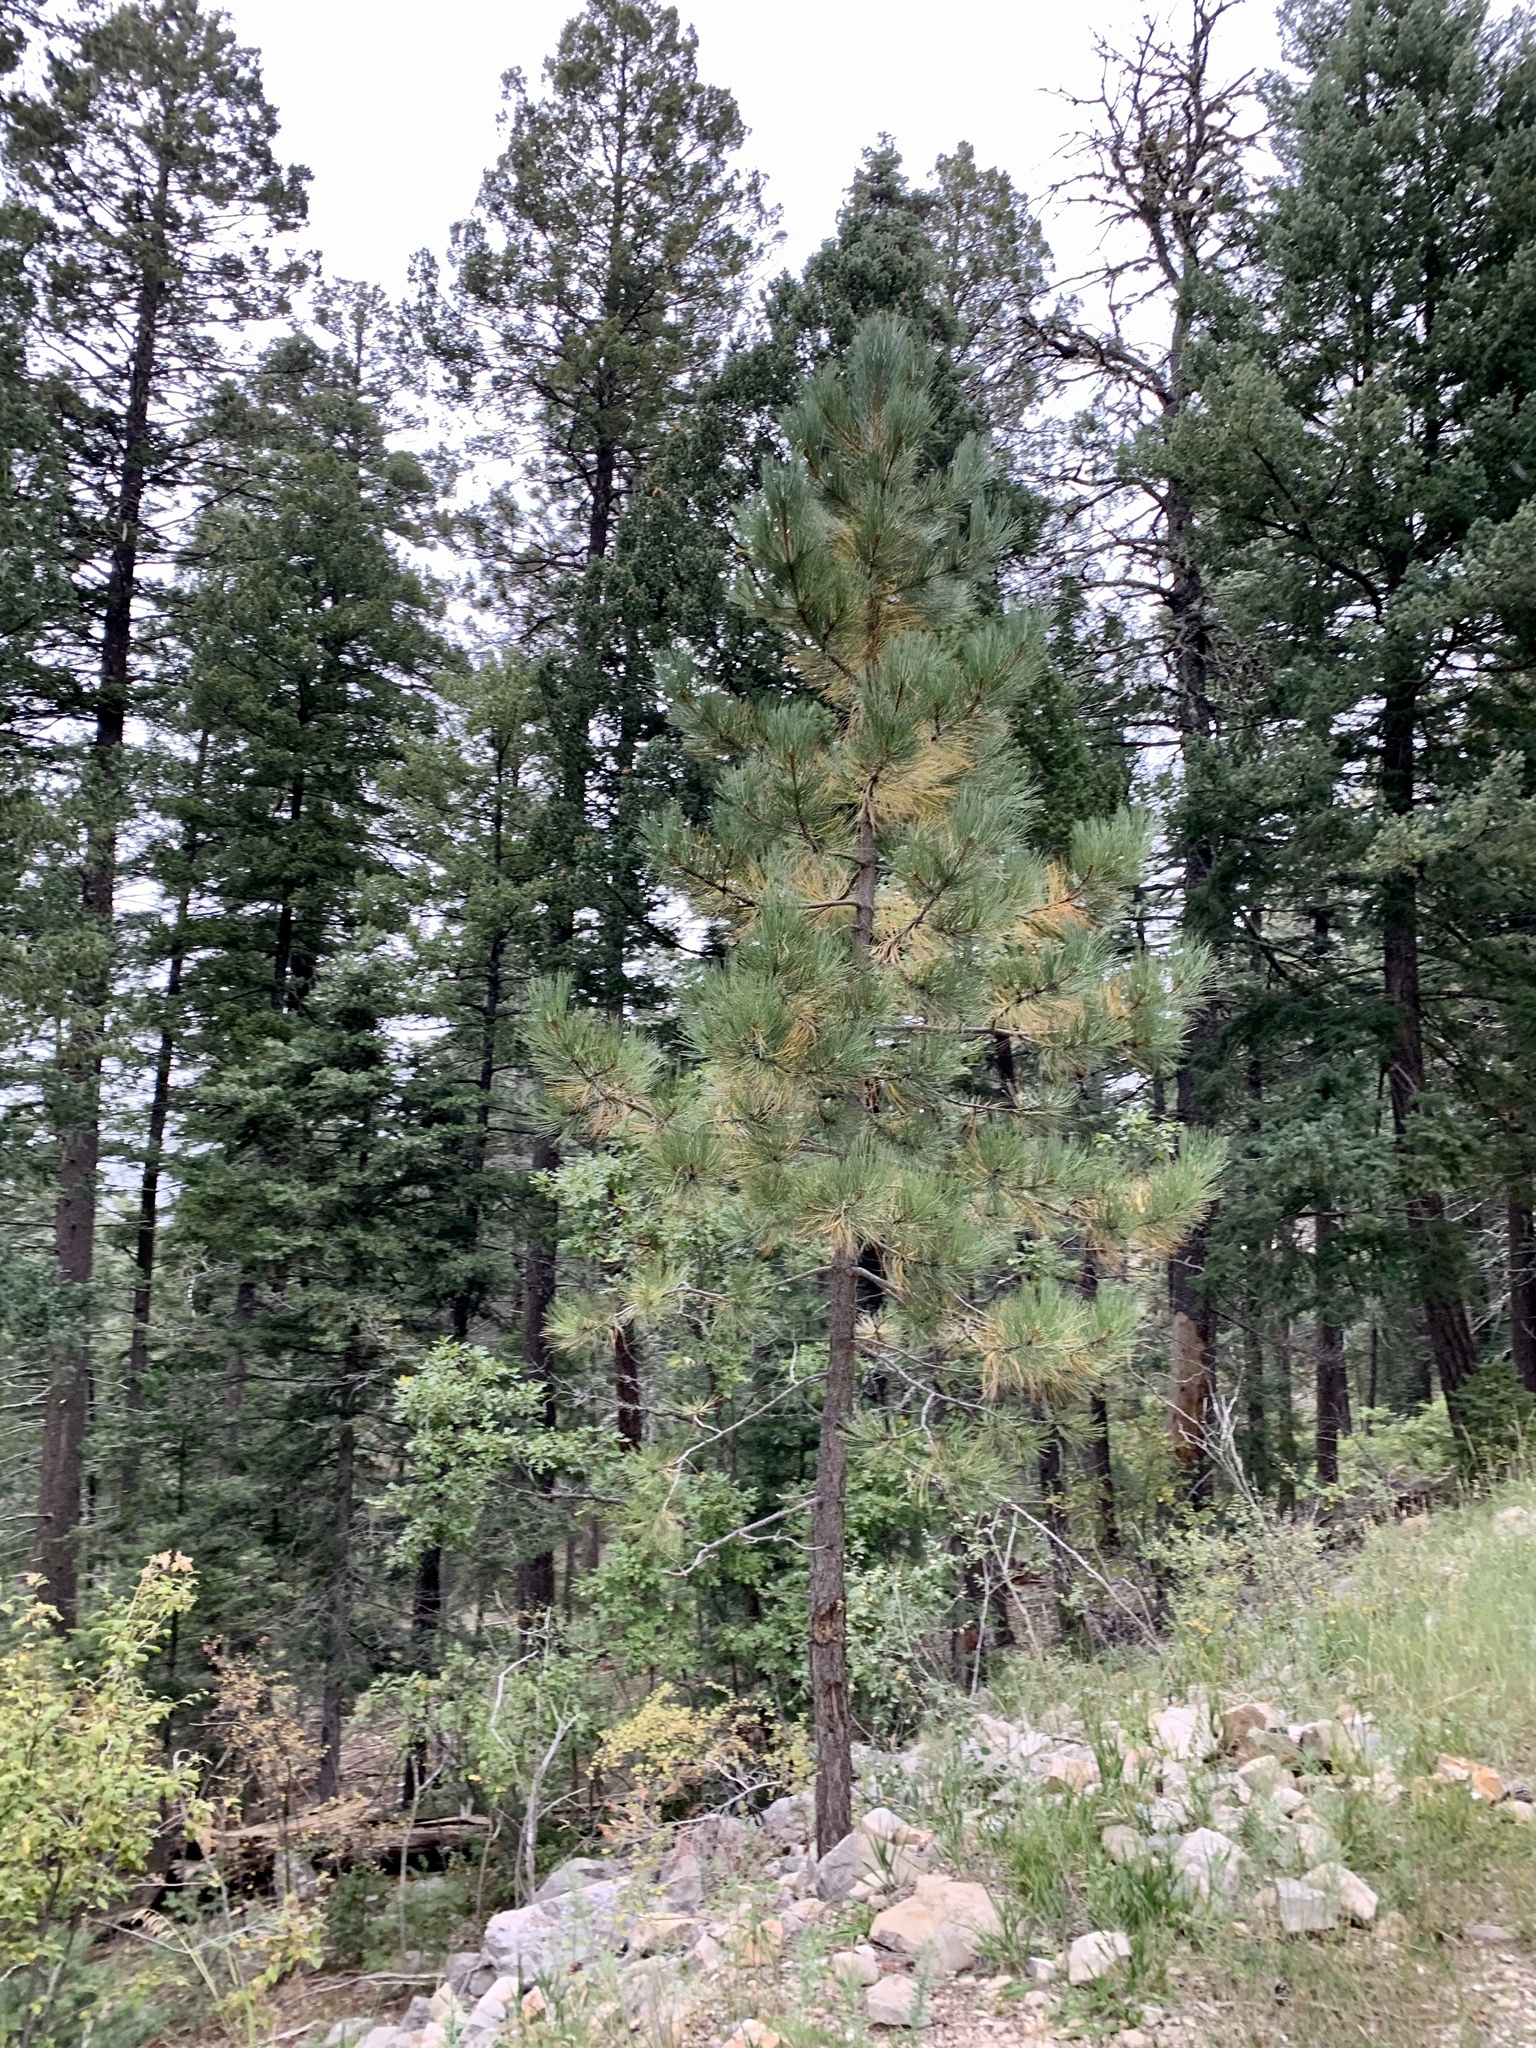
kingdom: Plantae
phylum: Tracheophyta
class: Pinopsida
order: Pinales
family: Pinaceae
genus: Pinus
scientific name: Pinus ponderosa
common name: Western yellow-pine
